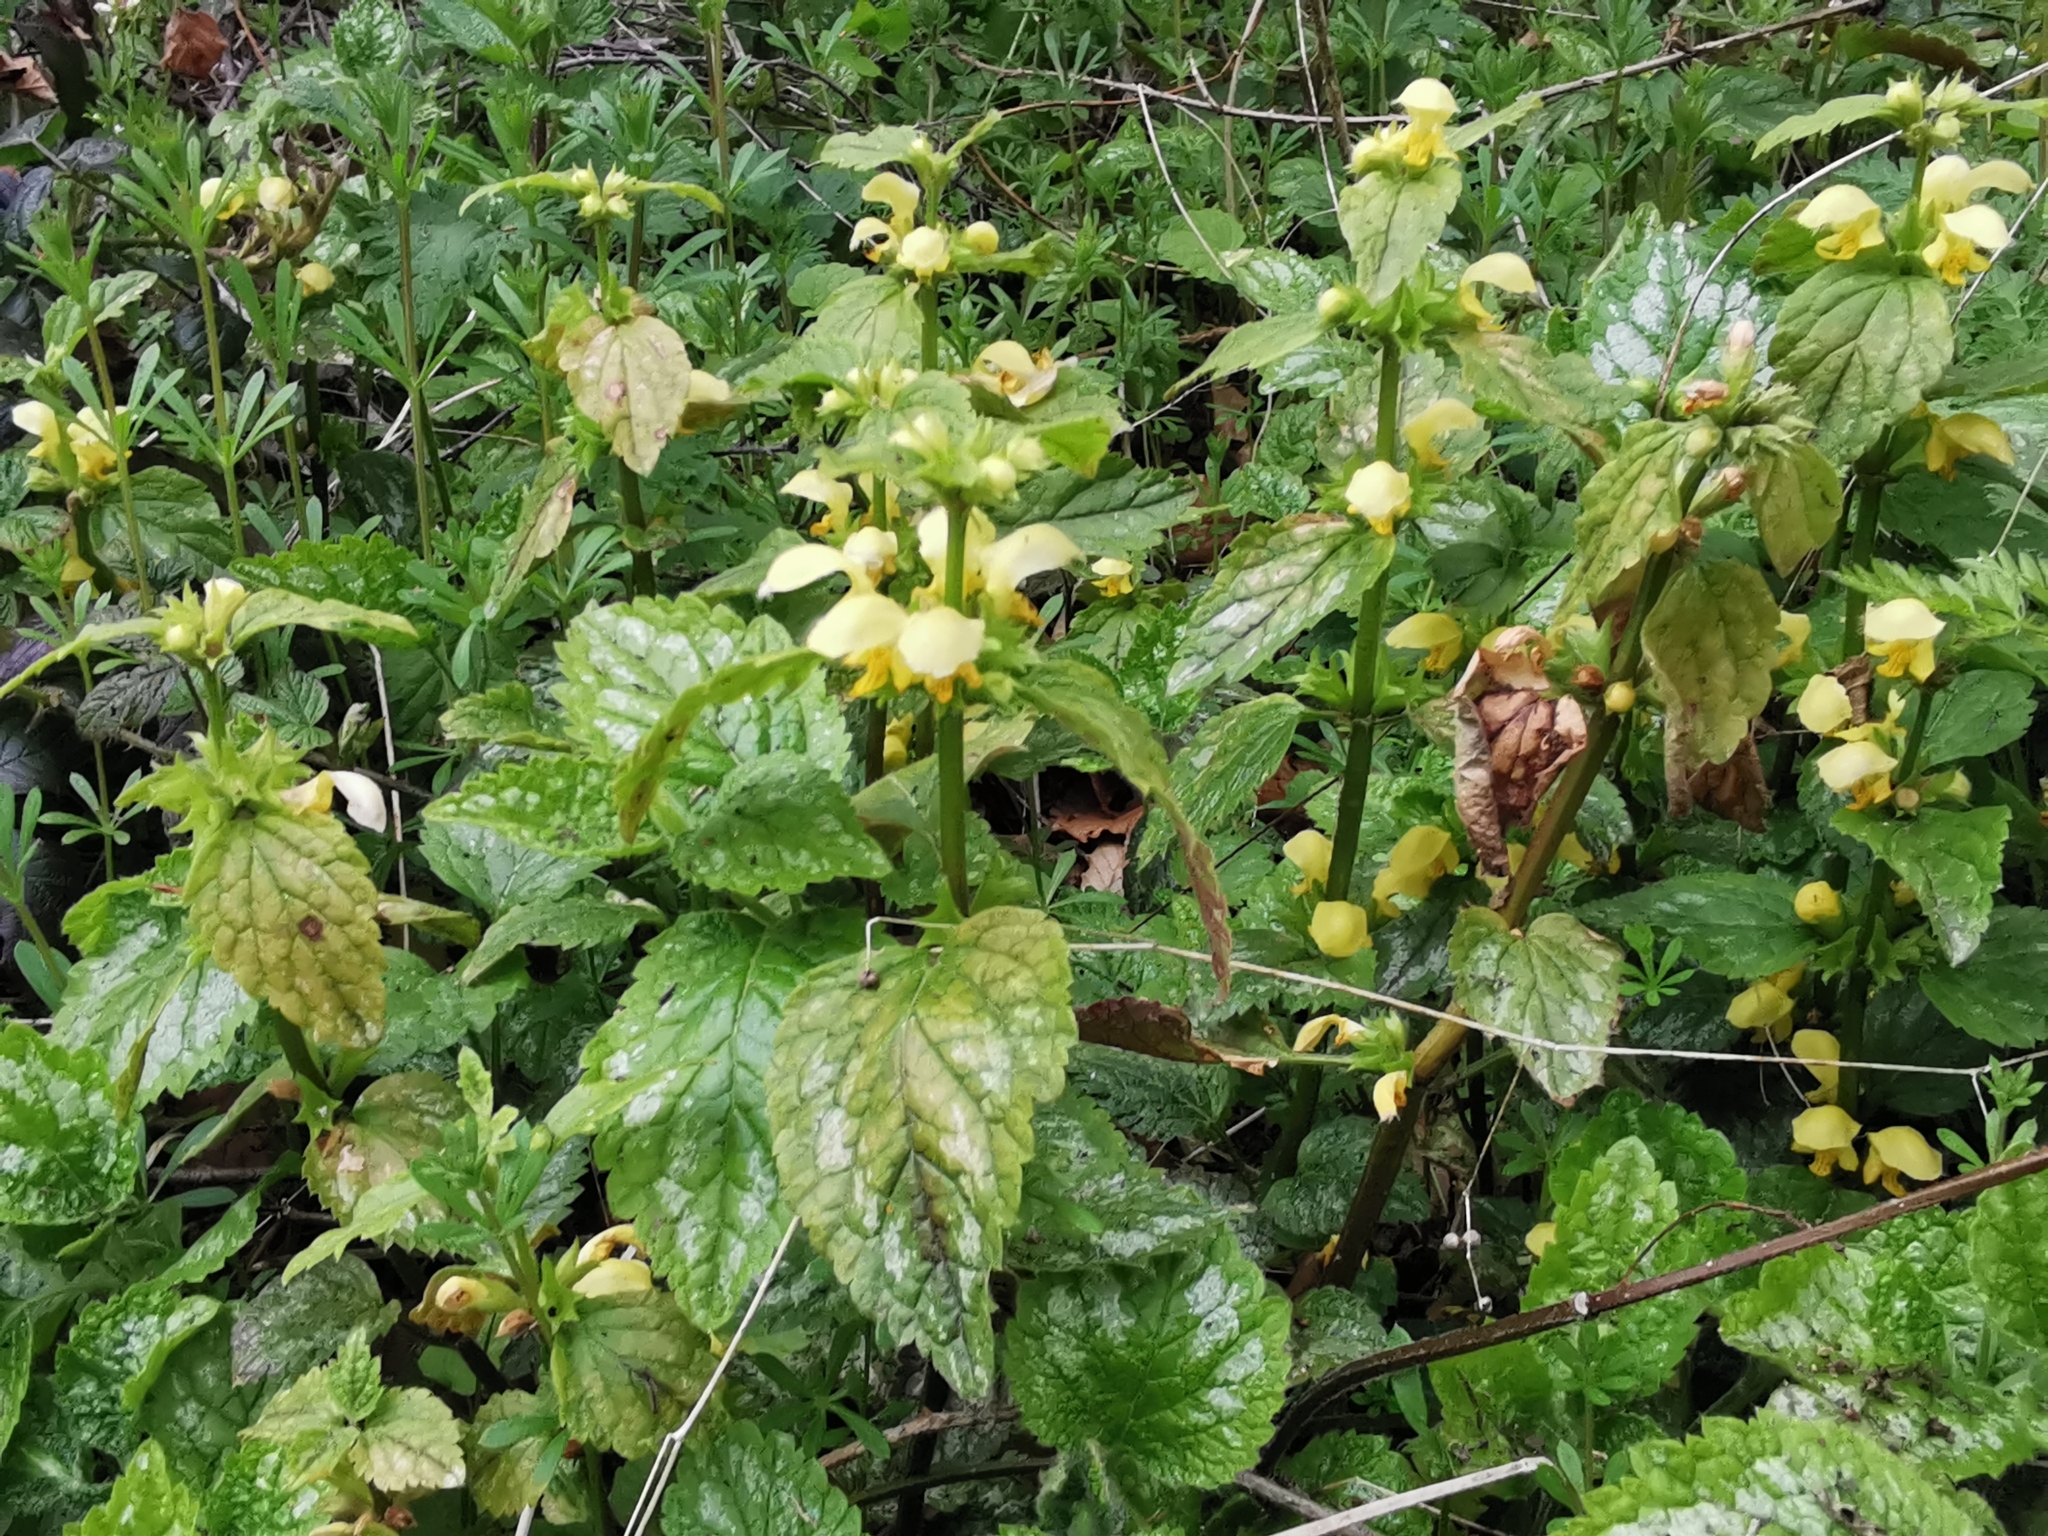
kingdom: Plantae
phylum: Tracheophyta
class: Magnoliopsida
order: Lamiales
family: Lamiaceae
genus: Lamium
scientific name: Lamium galeobdolon
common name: Yellow archangel
